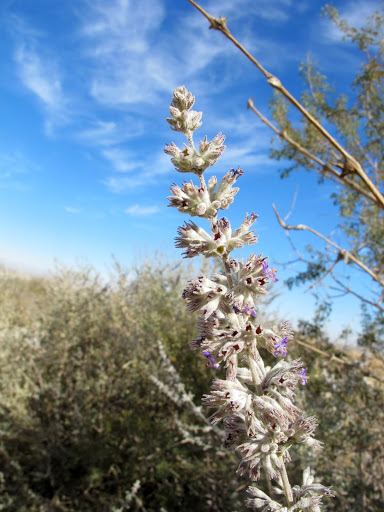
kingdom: Plantae
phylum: Tracheophyta
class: Magnoliopsida
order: Lamiales
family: Lamiaceae
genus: Condea
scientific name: Condea emoryi
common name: Chia
